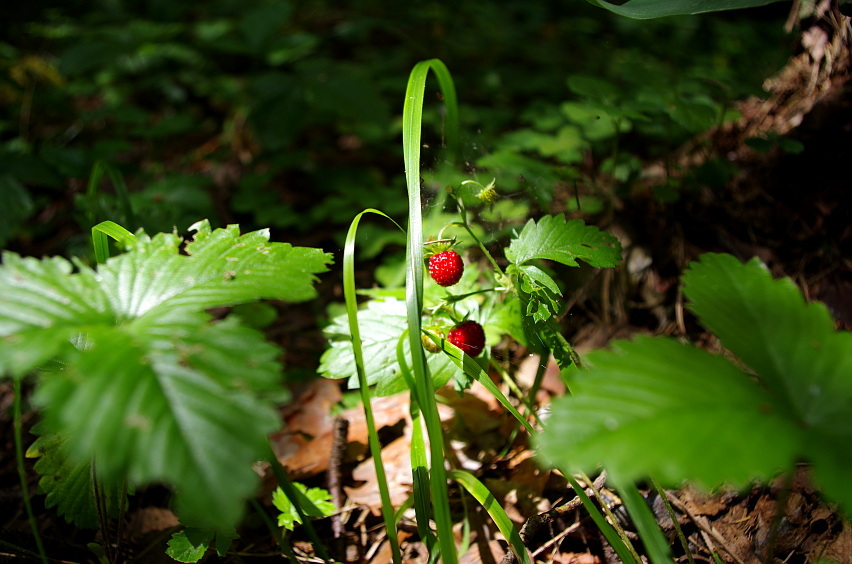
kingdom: Plantae
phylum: Tracheophyta
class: Magnoliopsida
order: Rosales
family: Rosaceae
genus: Fragaria
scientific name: Fragaria vesca
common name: Wild strawberry
